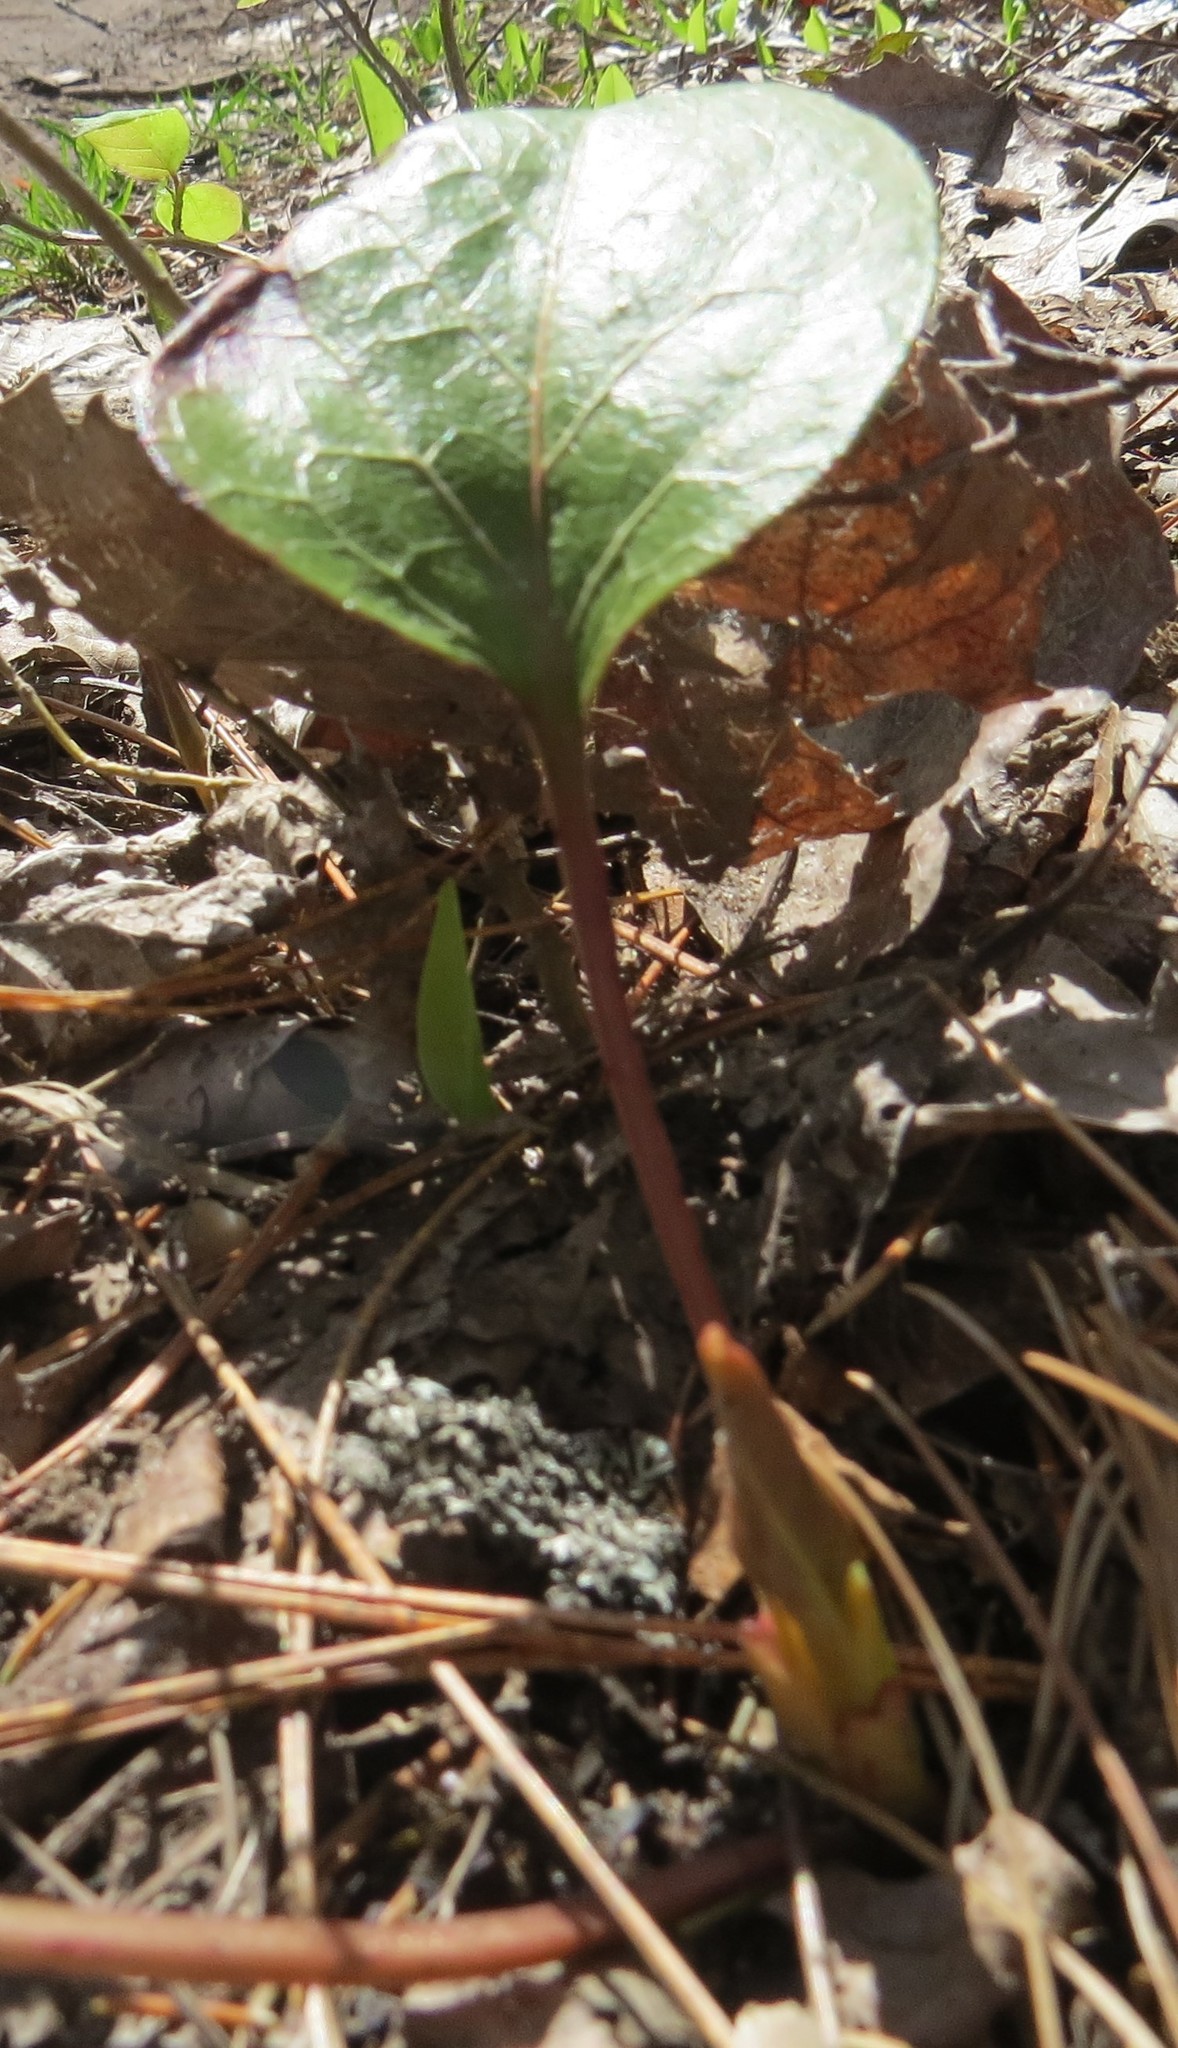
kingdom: Plantae
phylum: Tracheophyta
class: Magnoliopsida
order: Ericales
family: Ericaceae
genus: Pyrola
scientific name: Pyrola elliptica
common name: Shinleaf
